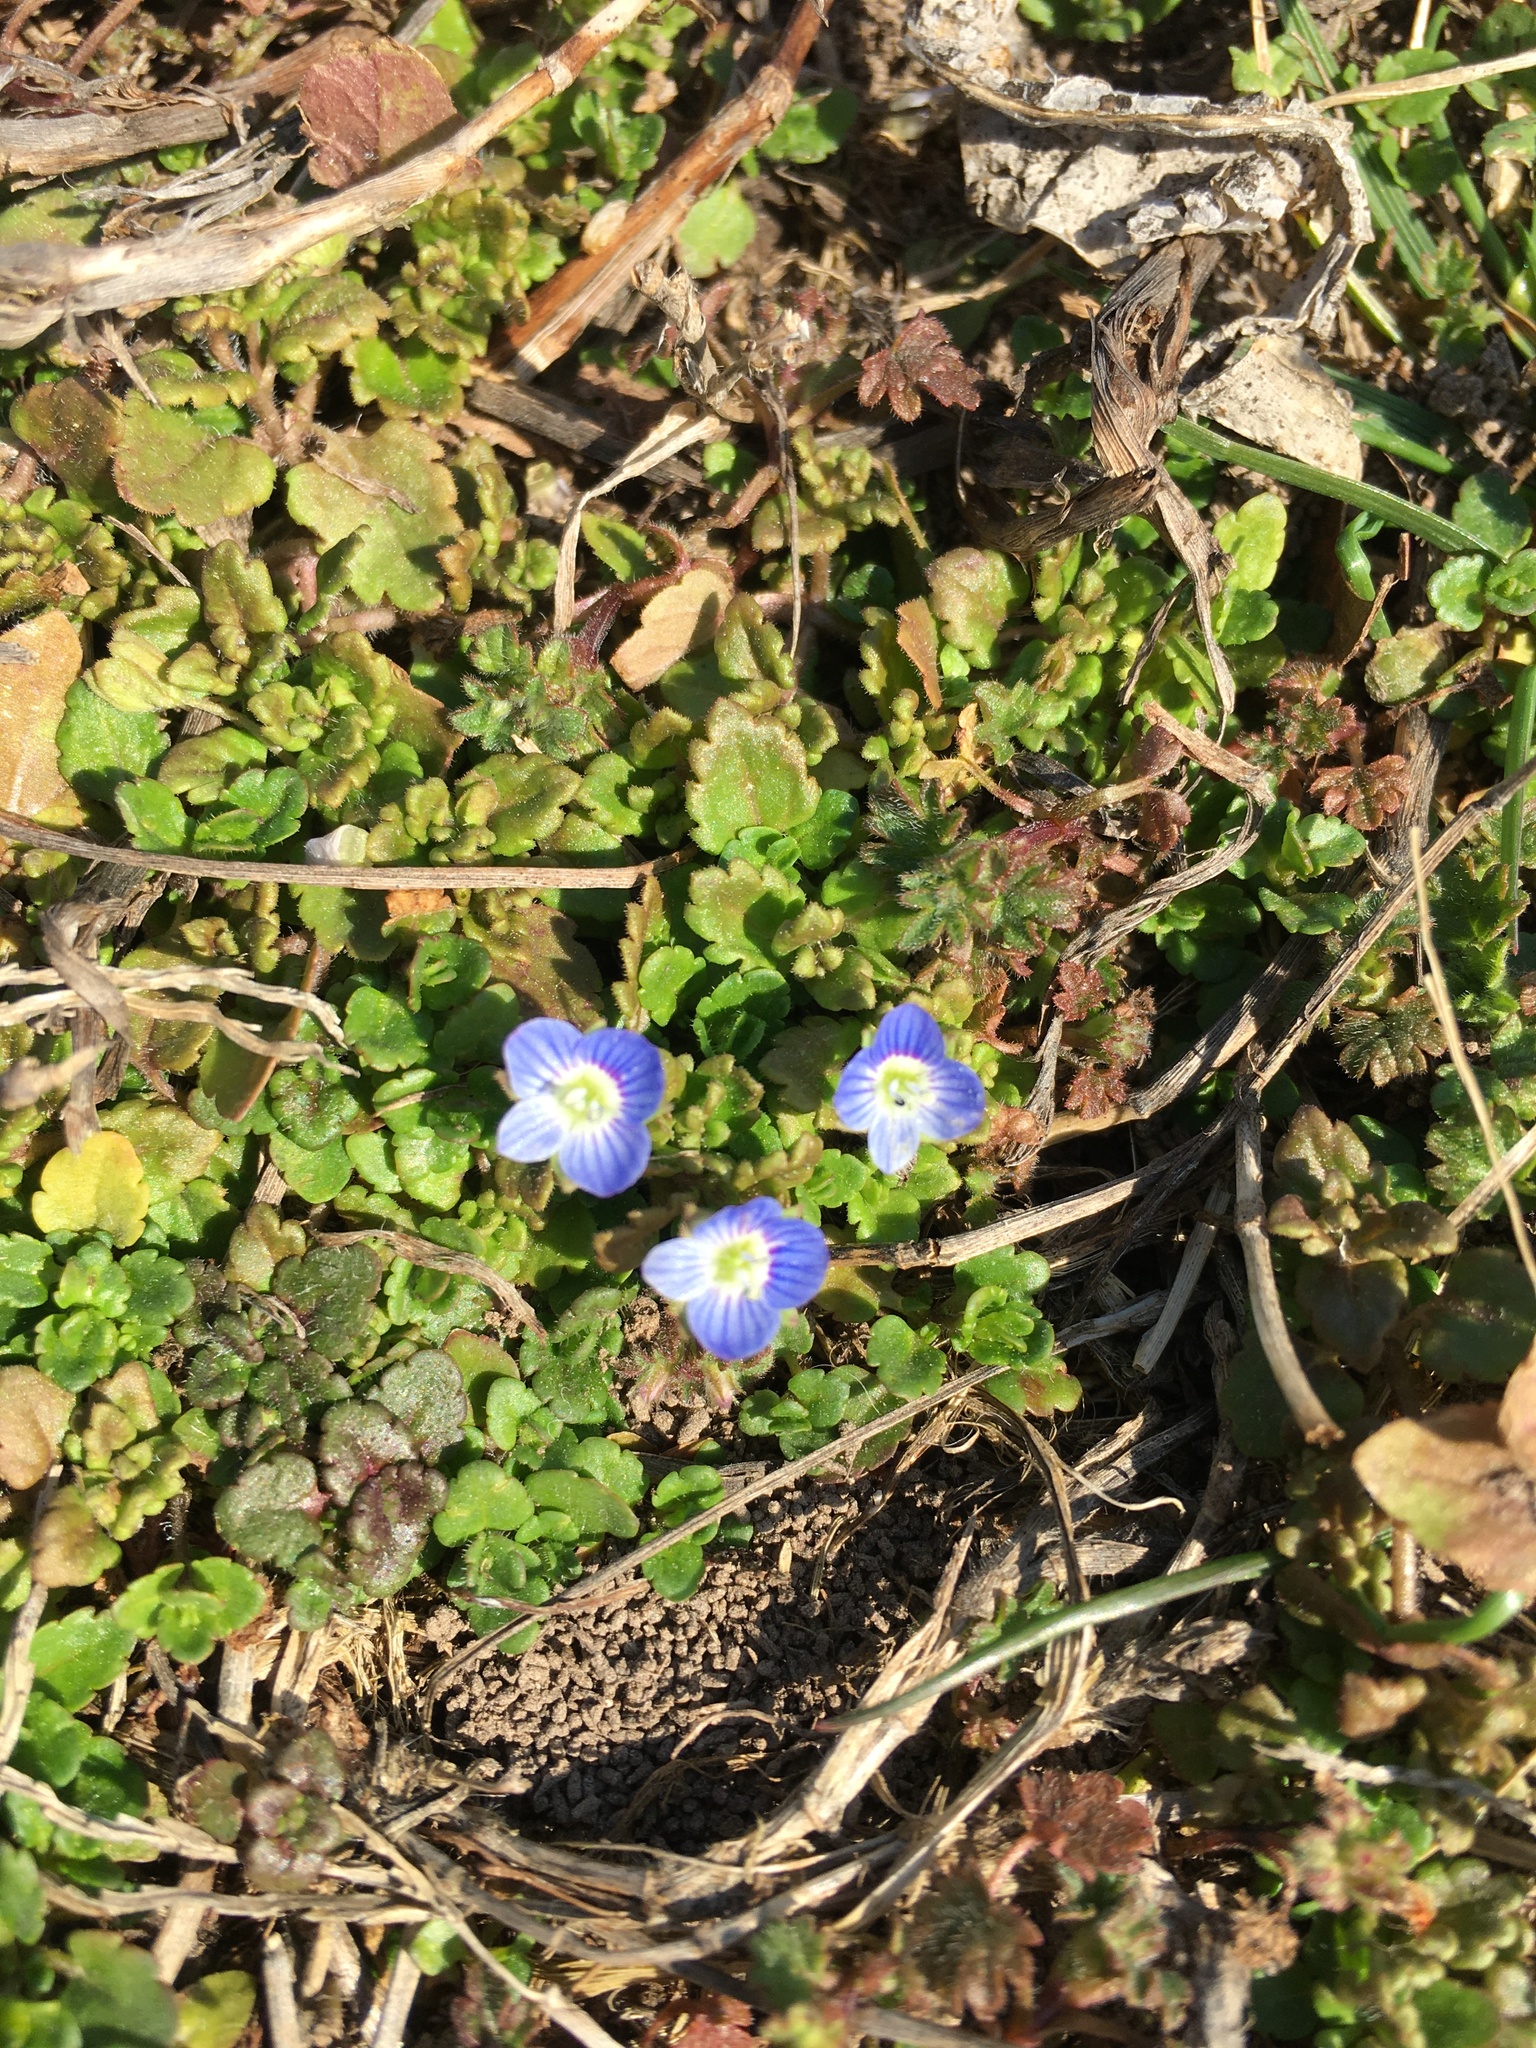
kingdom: Plantae
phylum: Tracheophyta
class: Magnoliopsida
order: Lamiales
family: Plantaginaceae
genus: Veronica
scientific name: Veronica persica
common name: Common field-speedwell
